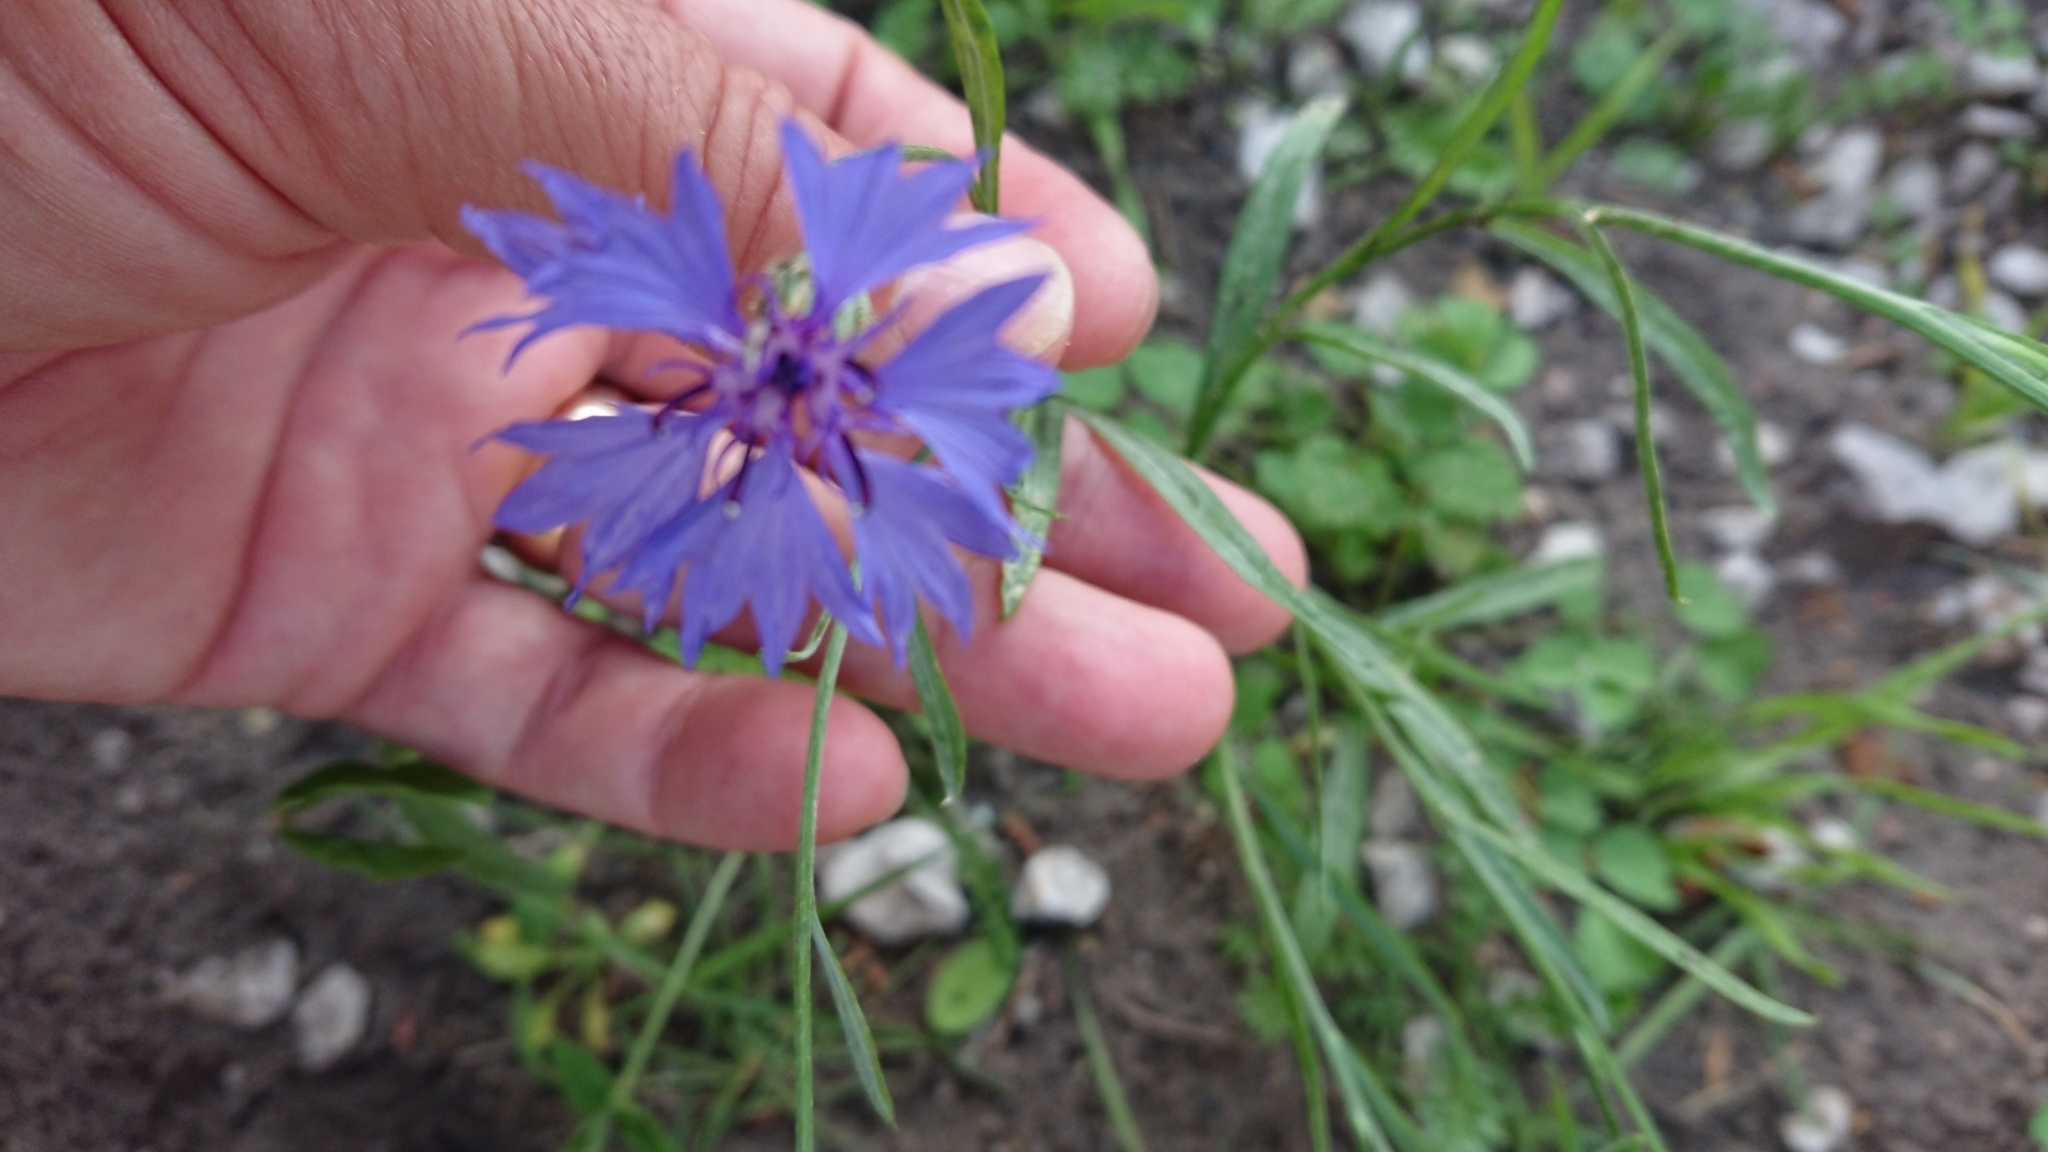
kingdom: Plantae
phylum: Tracheophyta
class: Magnoliopsida
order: Asterales
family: Asteraceae
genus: Centaurea
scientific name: Centaurea cyanus
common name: Cornflower
